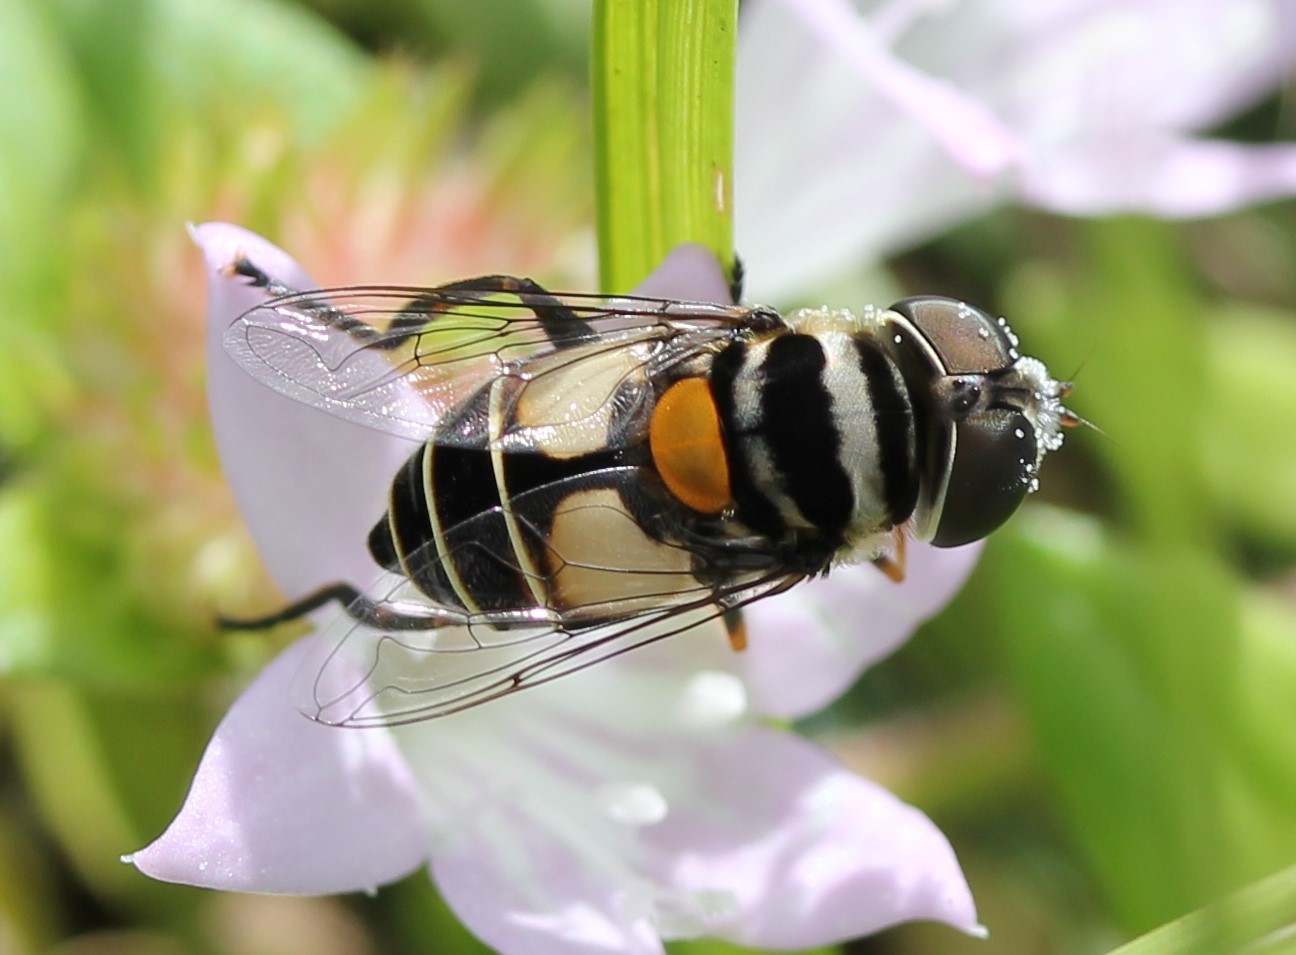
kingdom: Animalia
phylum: Arthropoda
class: Insecta
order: Diptera
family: Syrphidae
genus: Palpada
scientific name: Palpada albifrons
